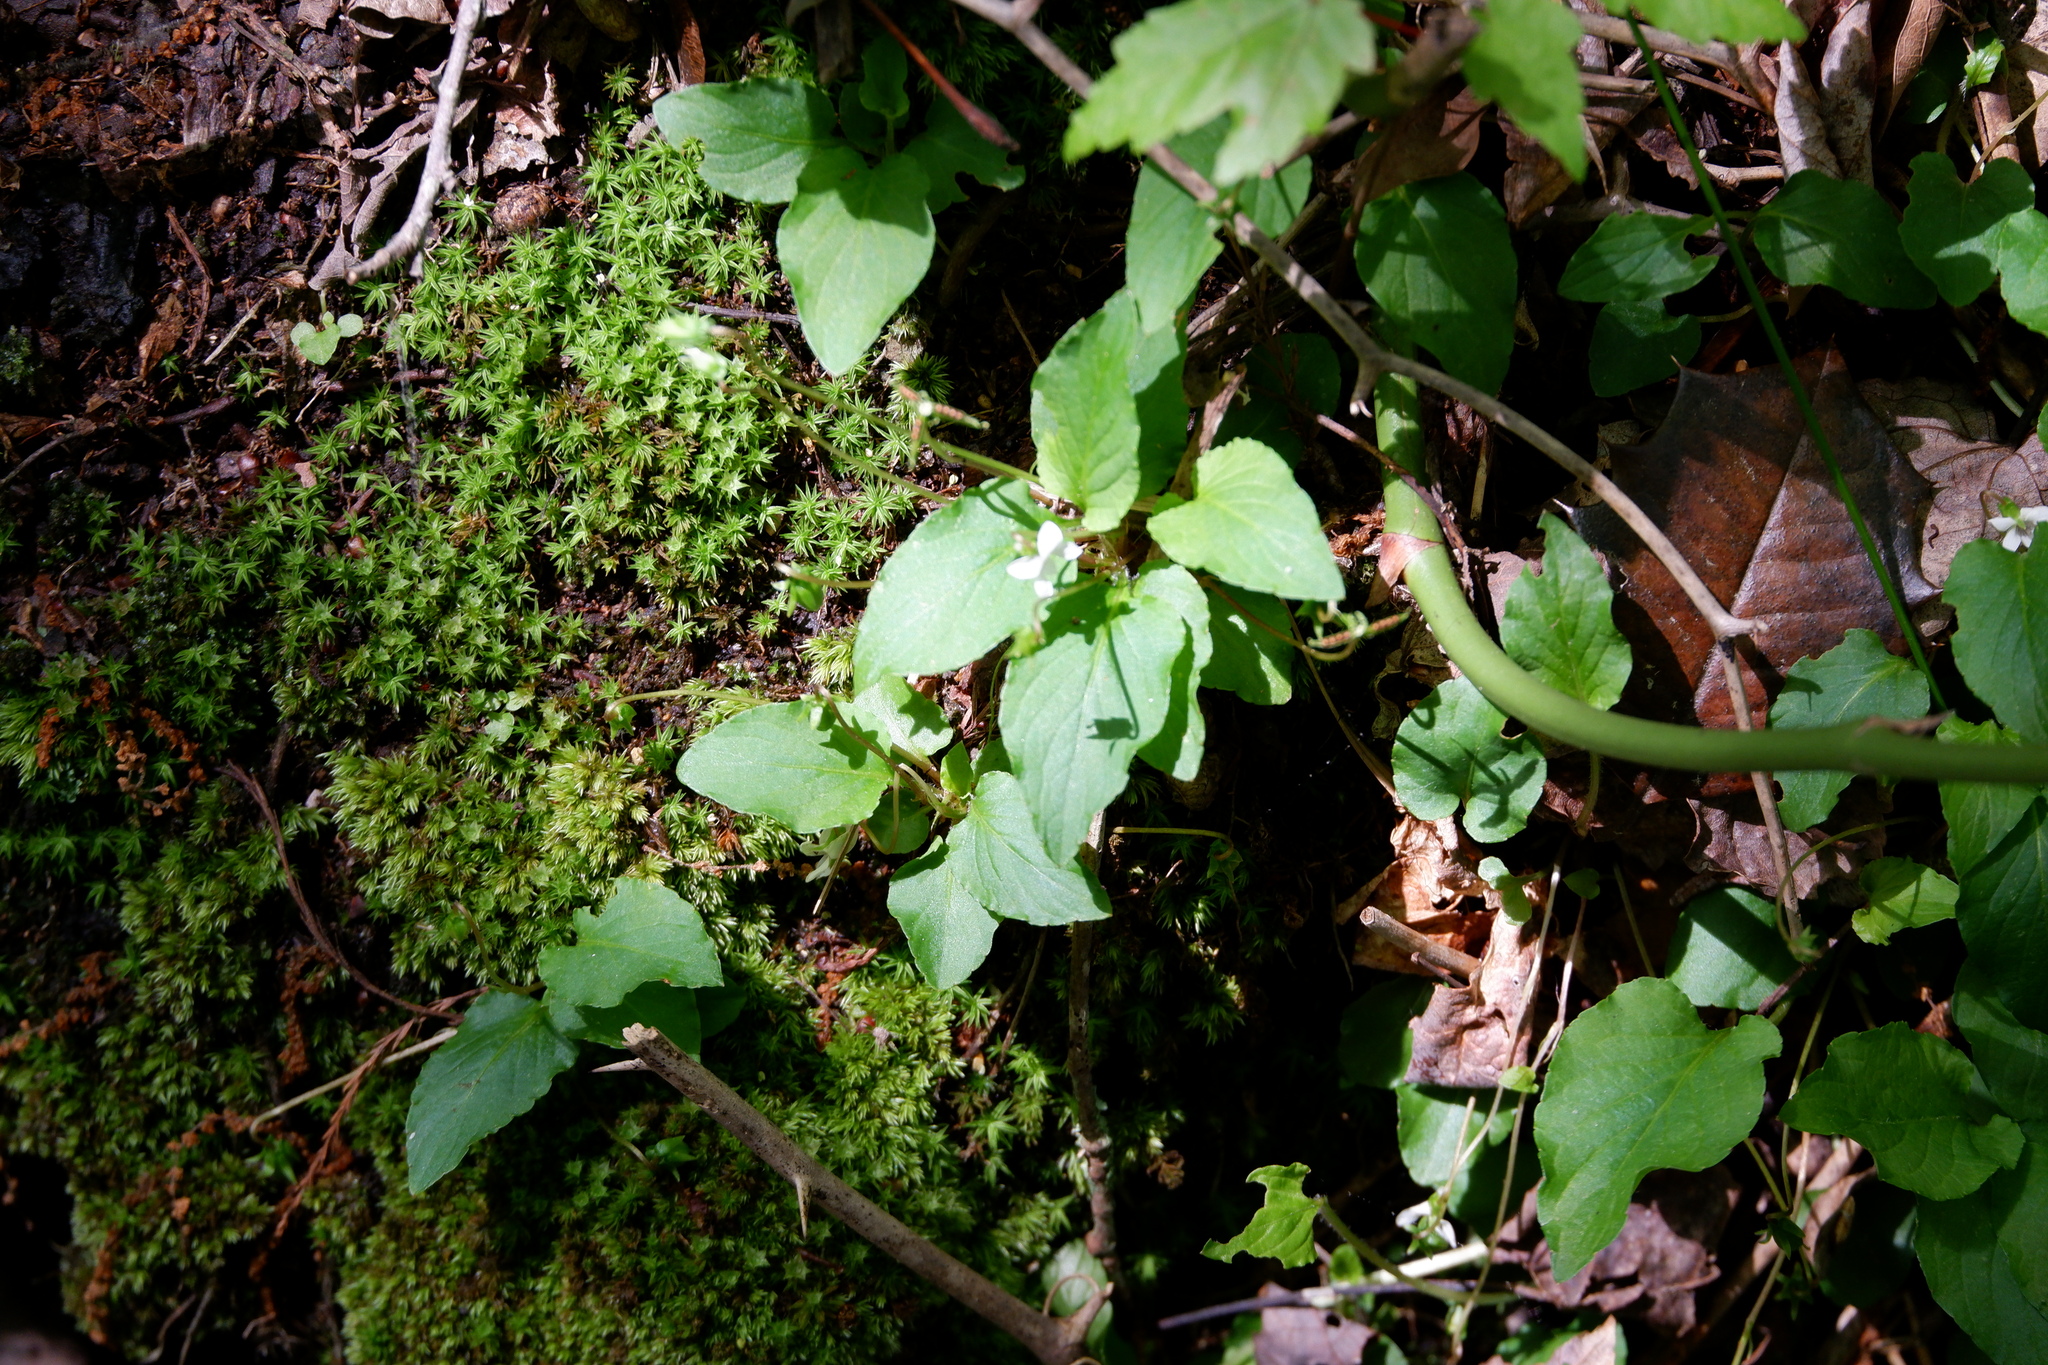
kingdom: Plantae
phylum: Tracheophyta
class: Magnoliopsida
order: Malpighiales
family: Violaceae
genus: Viola
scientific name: Viola primulifolia
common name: Primrose-leaf violet
